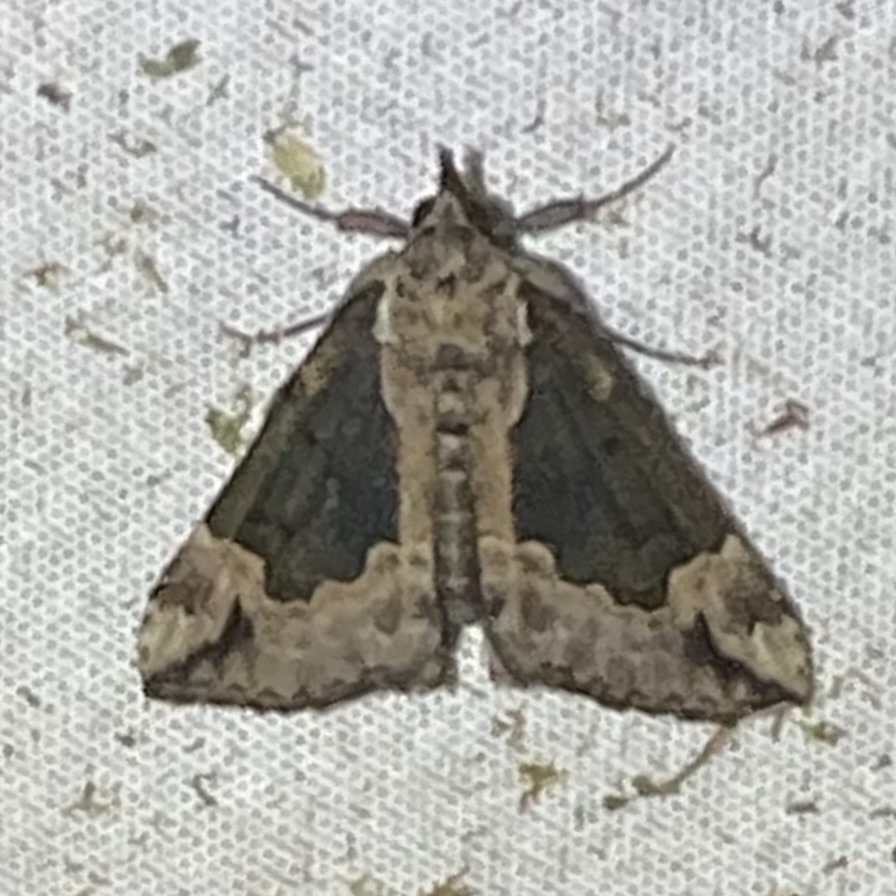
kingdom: Animalia
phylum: Arthropoda
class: Insecta
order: Lepidoptera
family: Erebidae
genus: Hypena
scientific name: Hypena baltimoralis
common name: Baltimore snout
